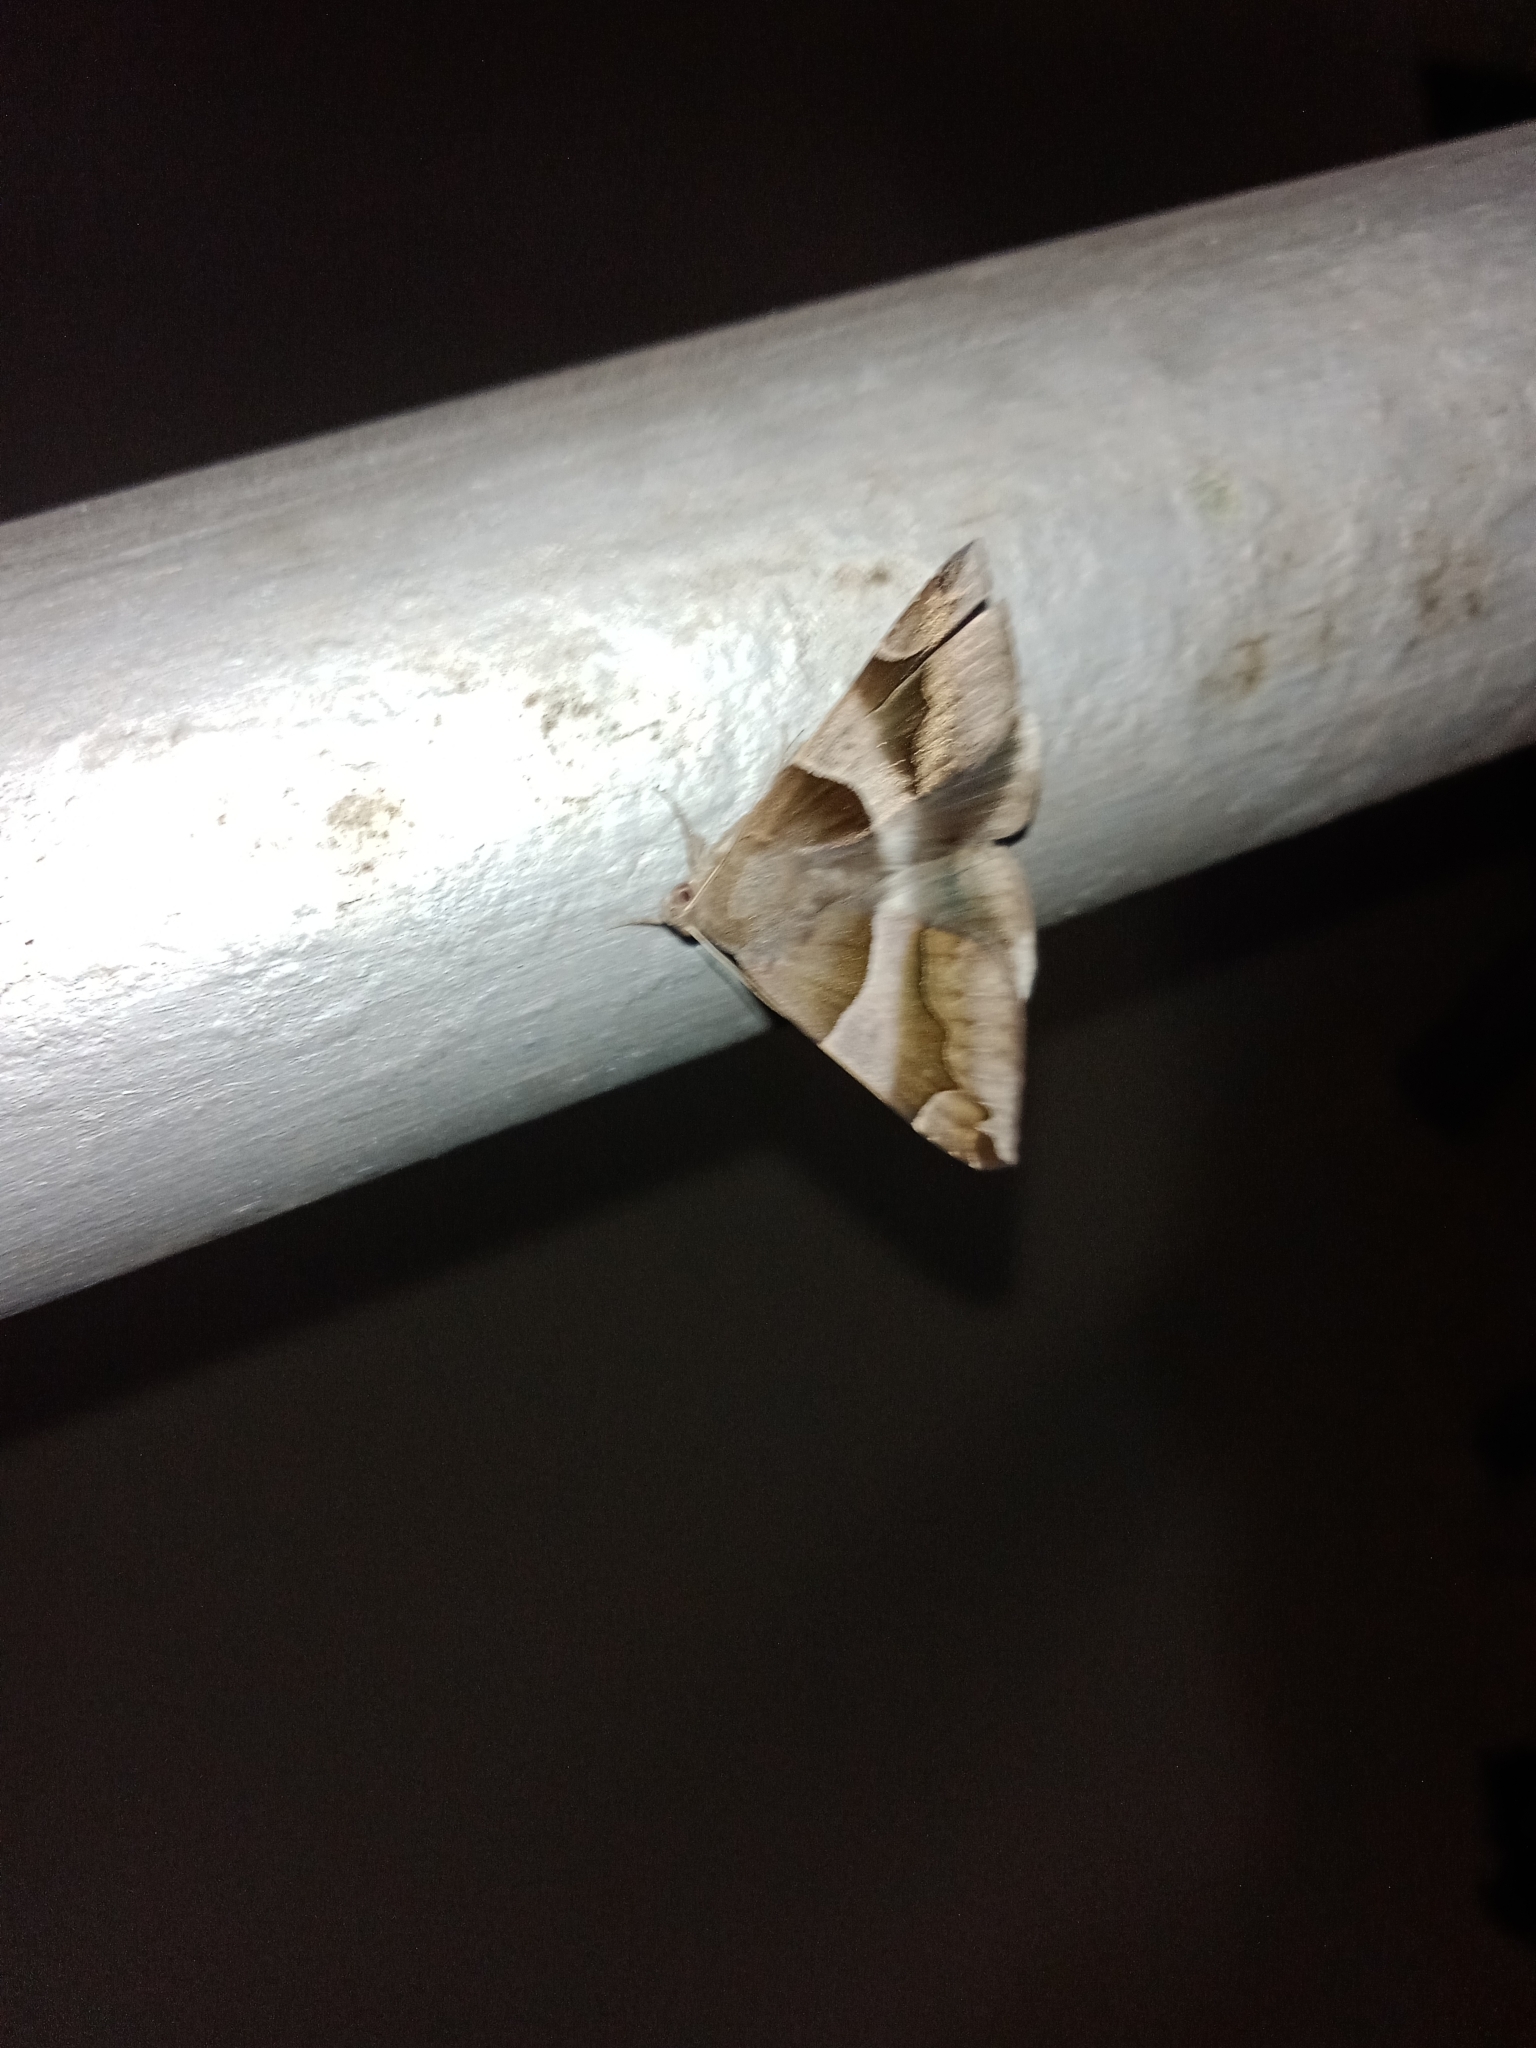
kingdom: Animalia
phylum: Arthropoda
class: Insecta
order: Lepidoptera
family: Erebidae
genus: Dysgonia
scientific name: Dysgonia stuposa
